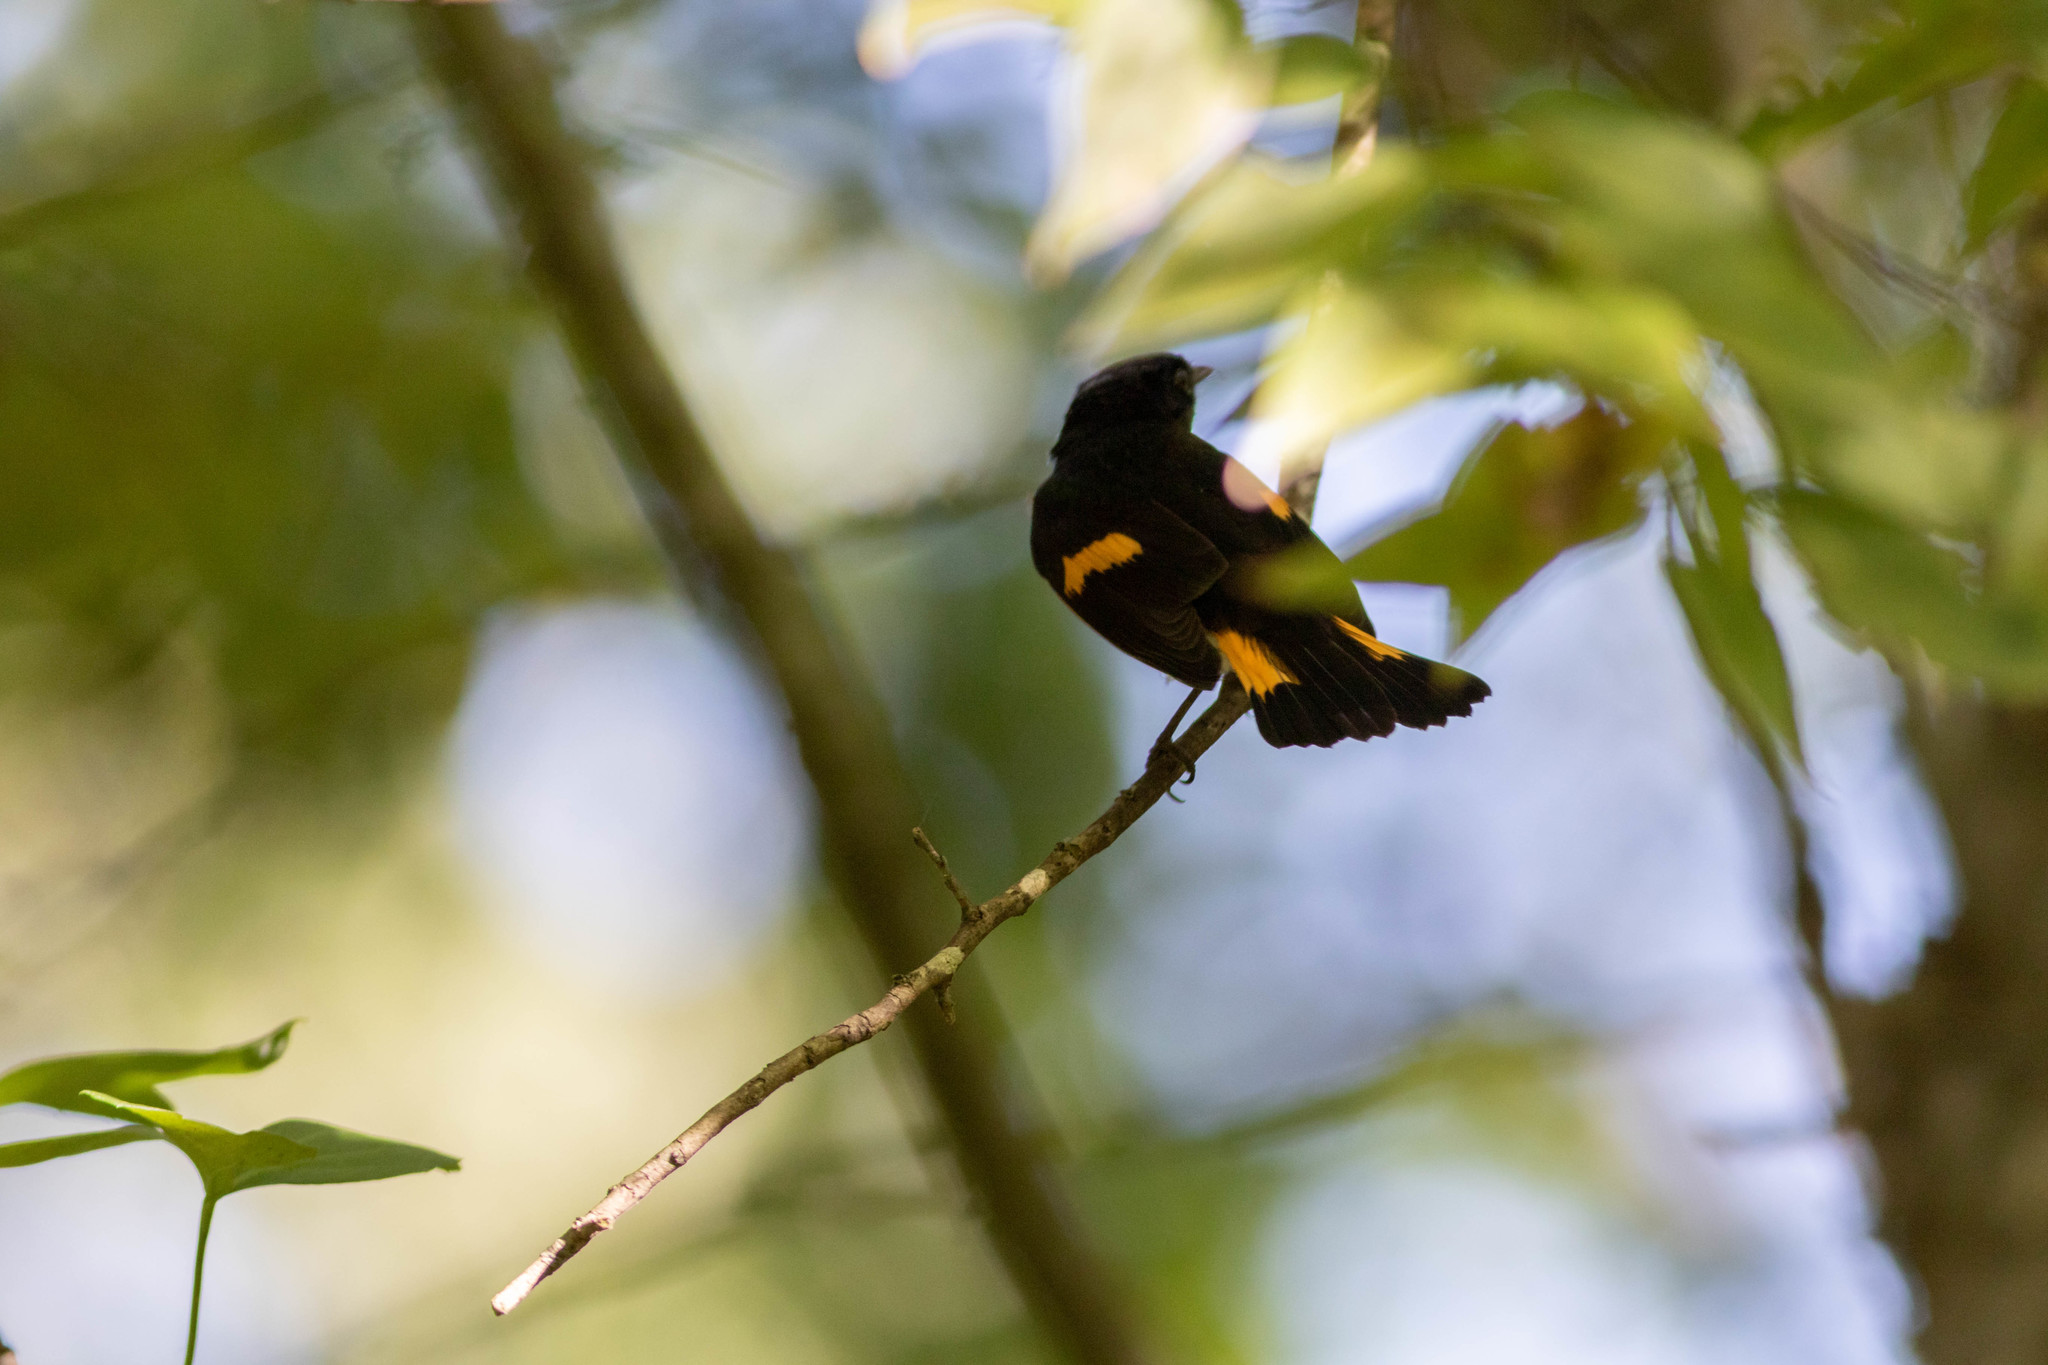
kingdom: Animalia
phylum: Chordata
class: Aves
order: Passeriformes
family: Parulidae
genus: Setophaga
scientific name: Setophaga ruticilla
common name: American redstart
